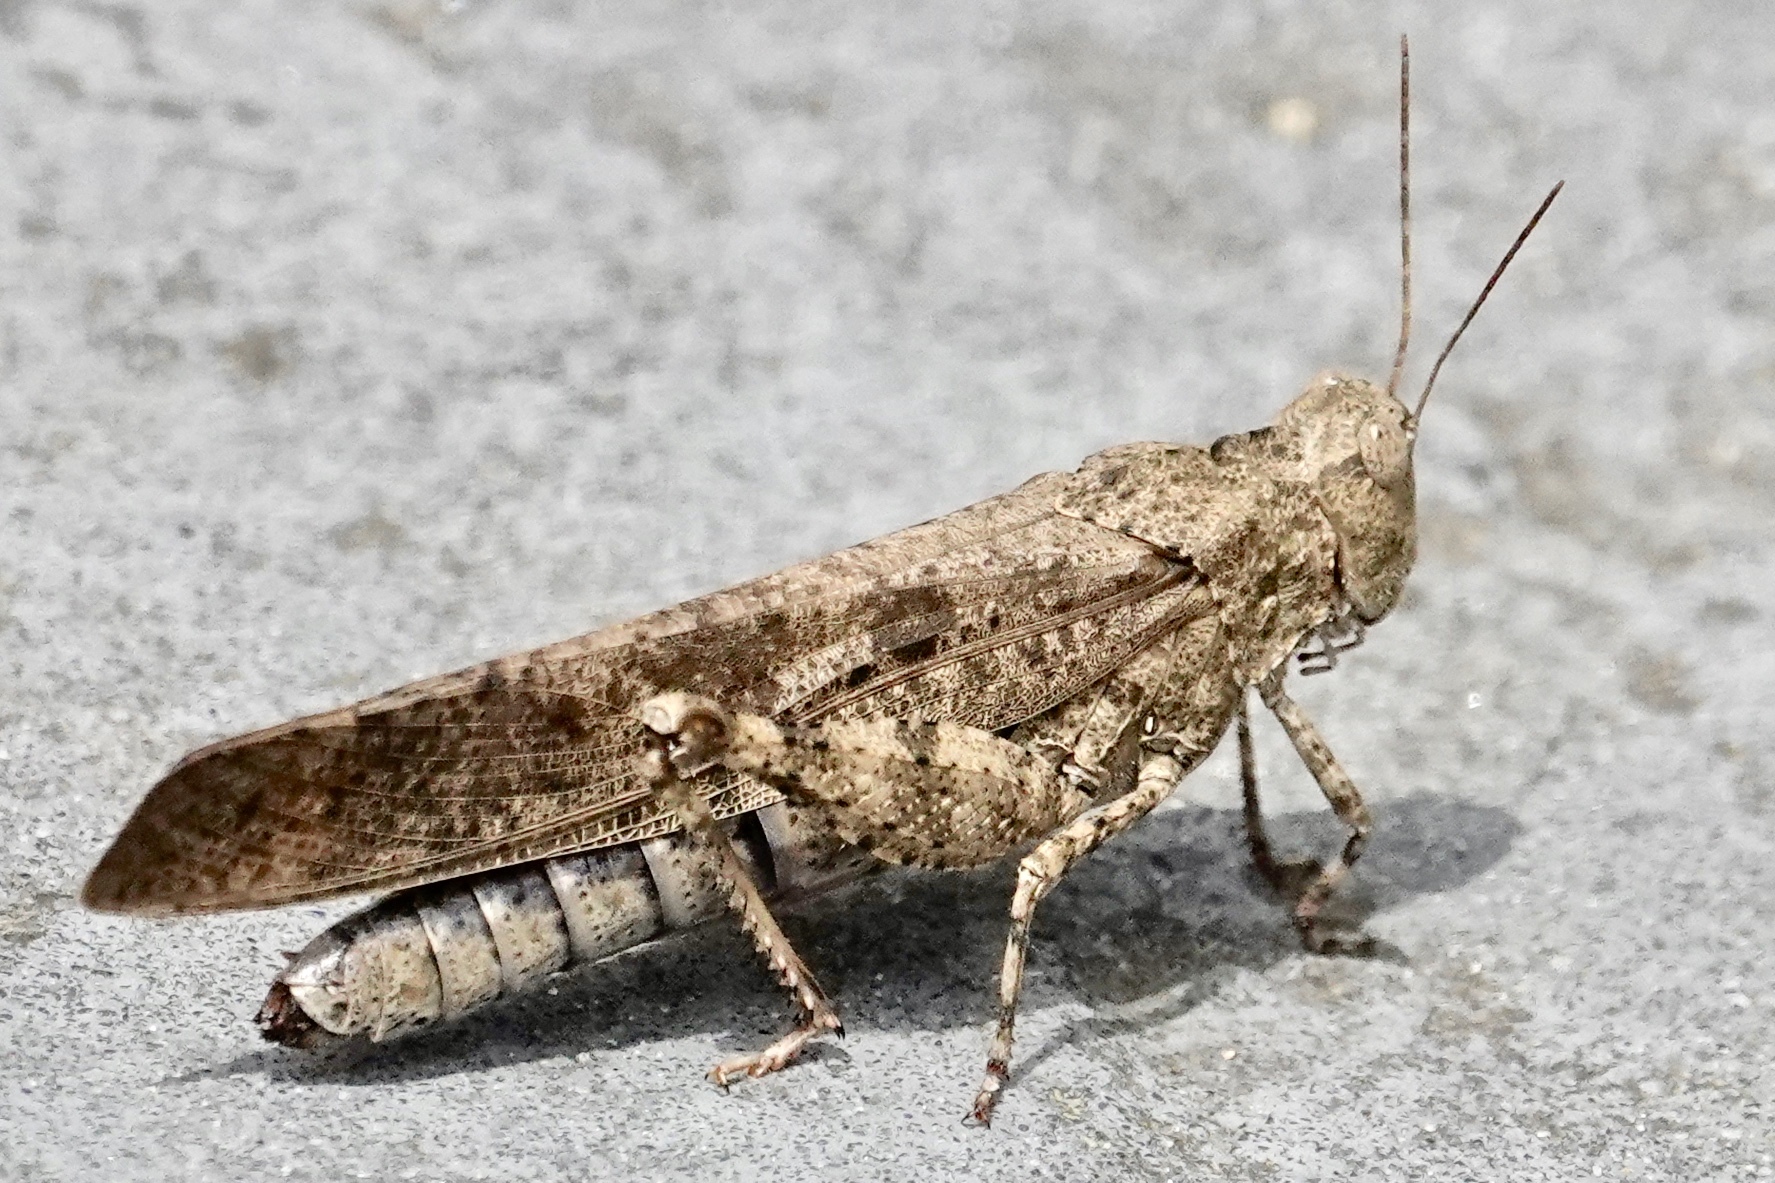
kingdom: Animalia
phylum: Arthropoda
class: Insecta
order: Orthoptera
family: Acrididae
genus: Dissosteira
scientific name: Dissosteira carolina
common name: Carolina grasshopper
